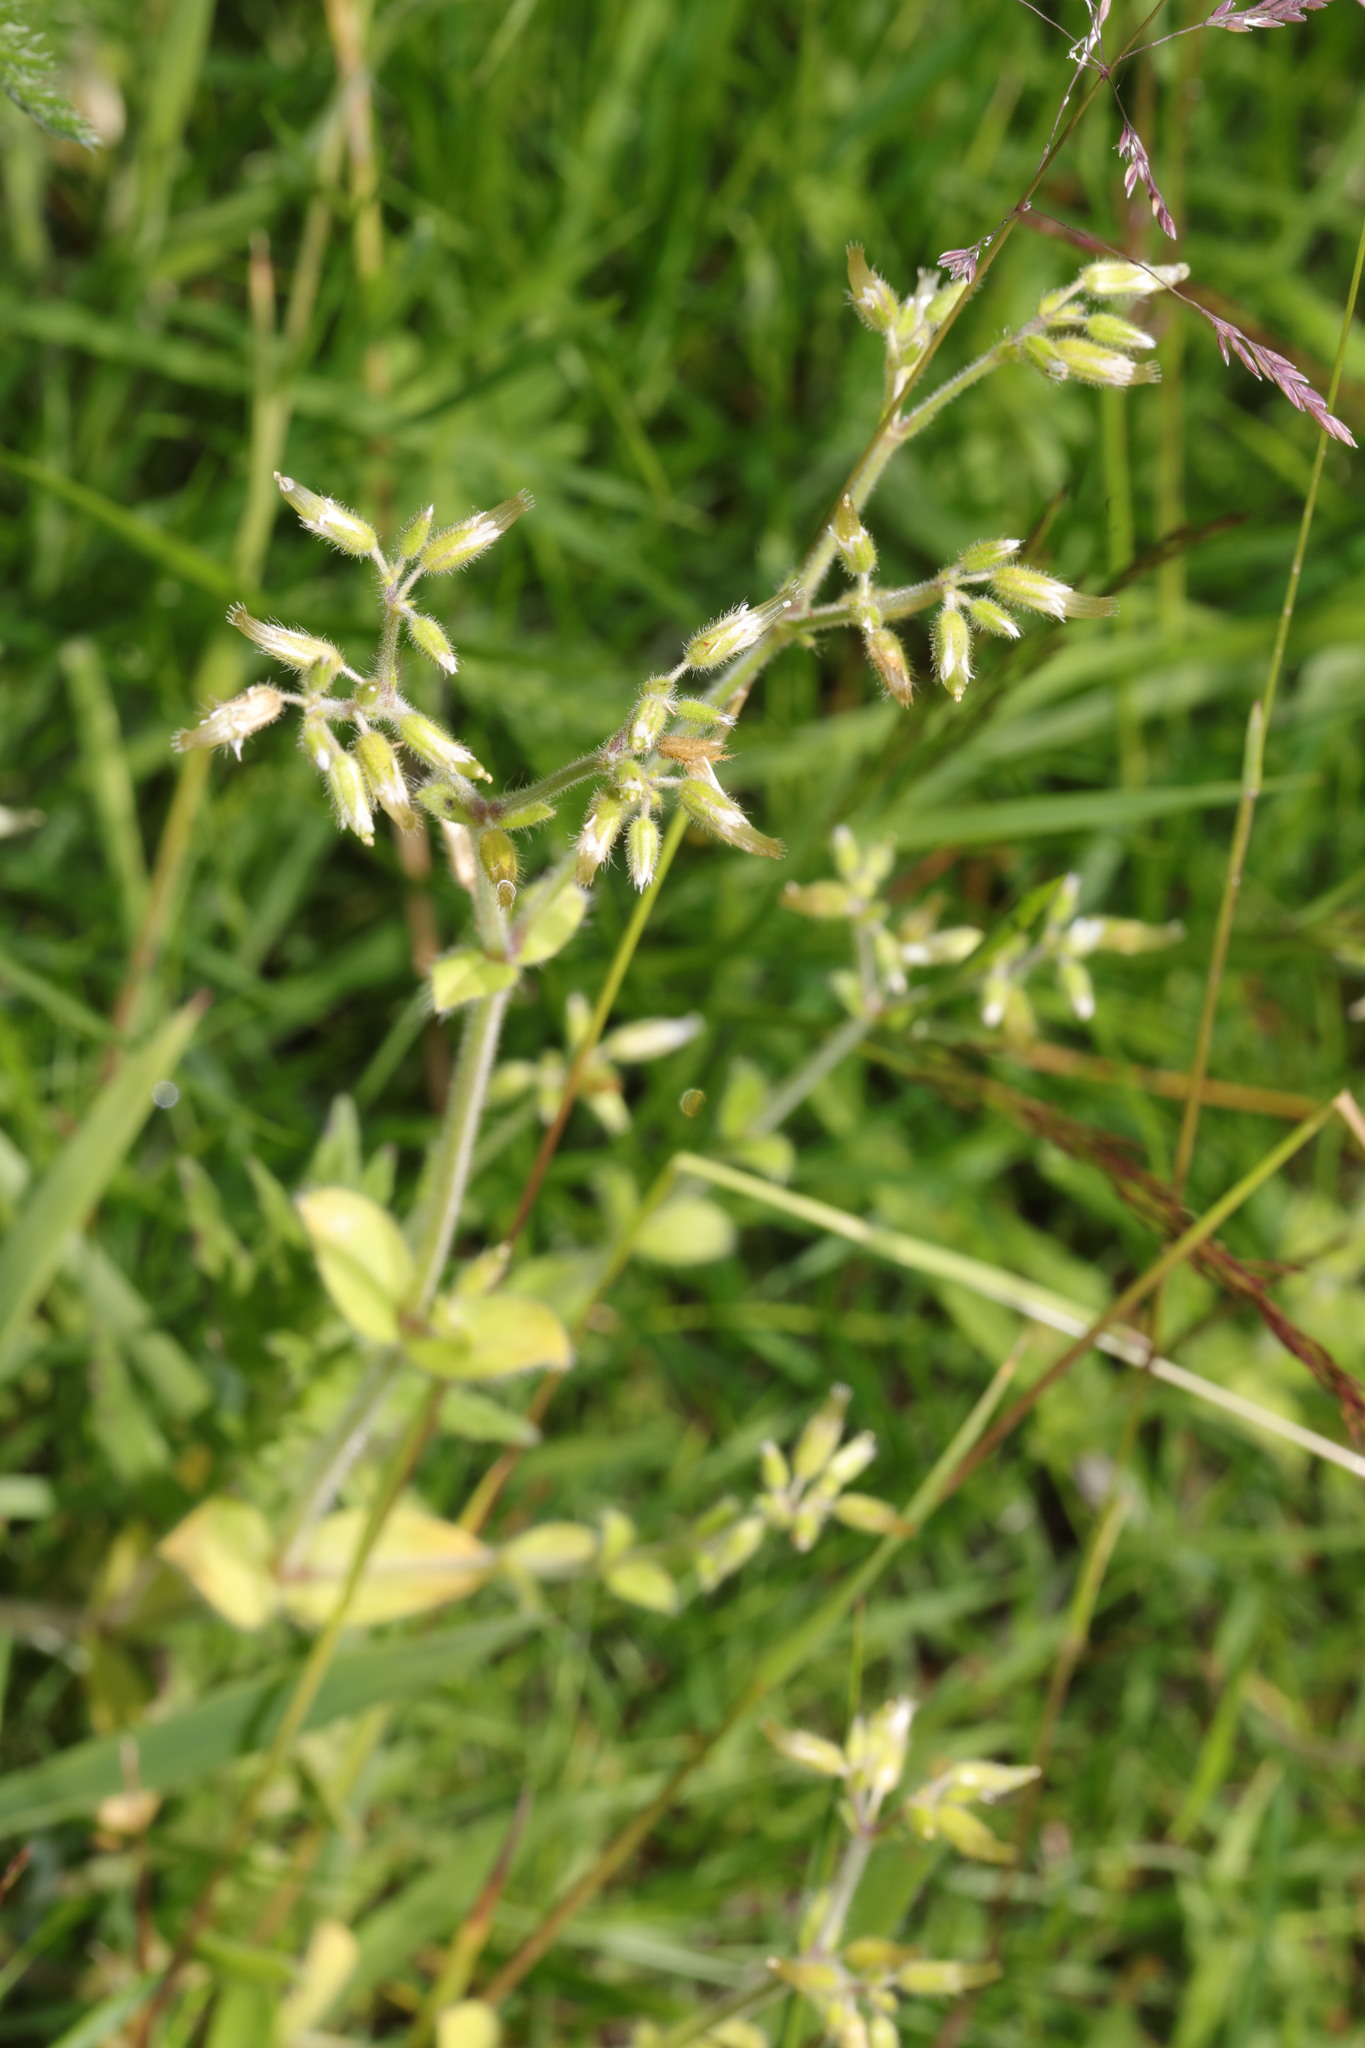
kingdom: Plantae
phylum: Tracheophyta
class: Magnoliopsida
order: Caryophyllales
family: Caryophyllaceae
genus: Cerastium
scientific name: Cerastium glomeratum
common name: Sticky chickweed
